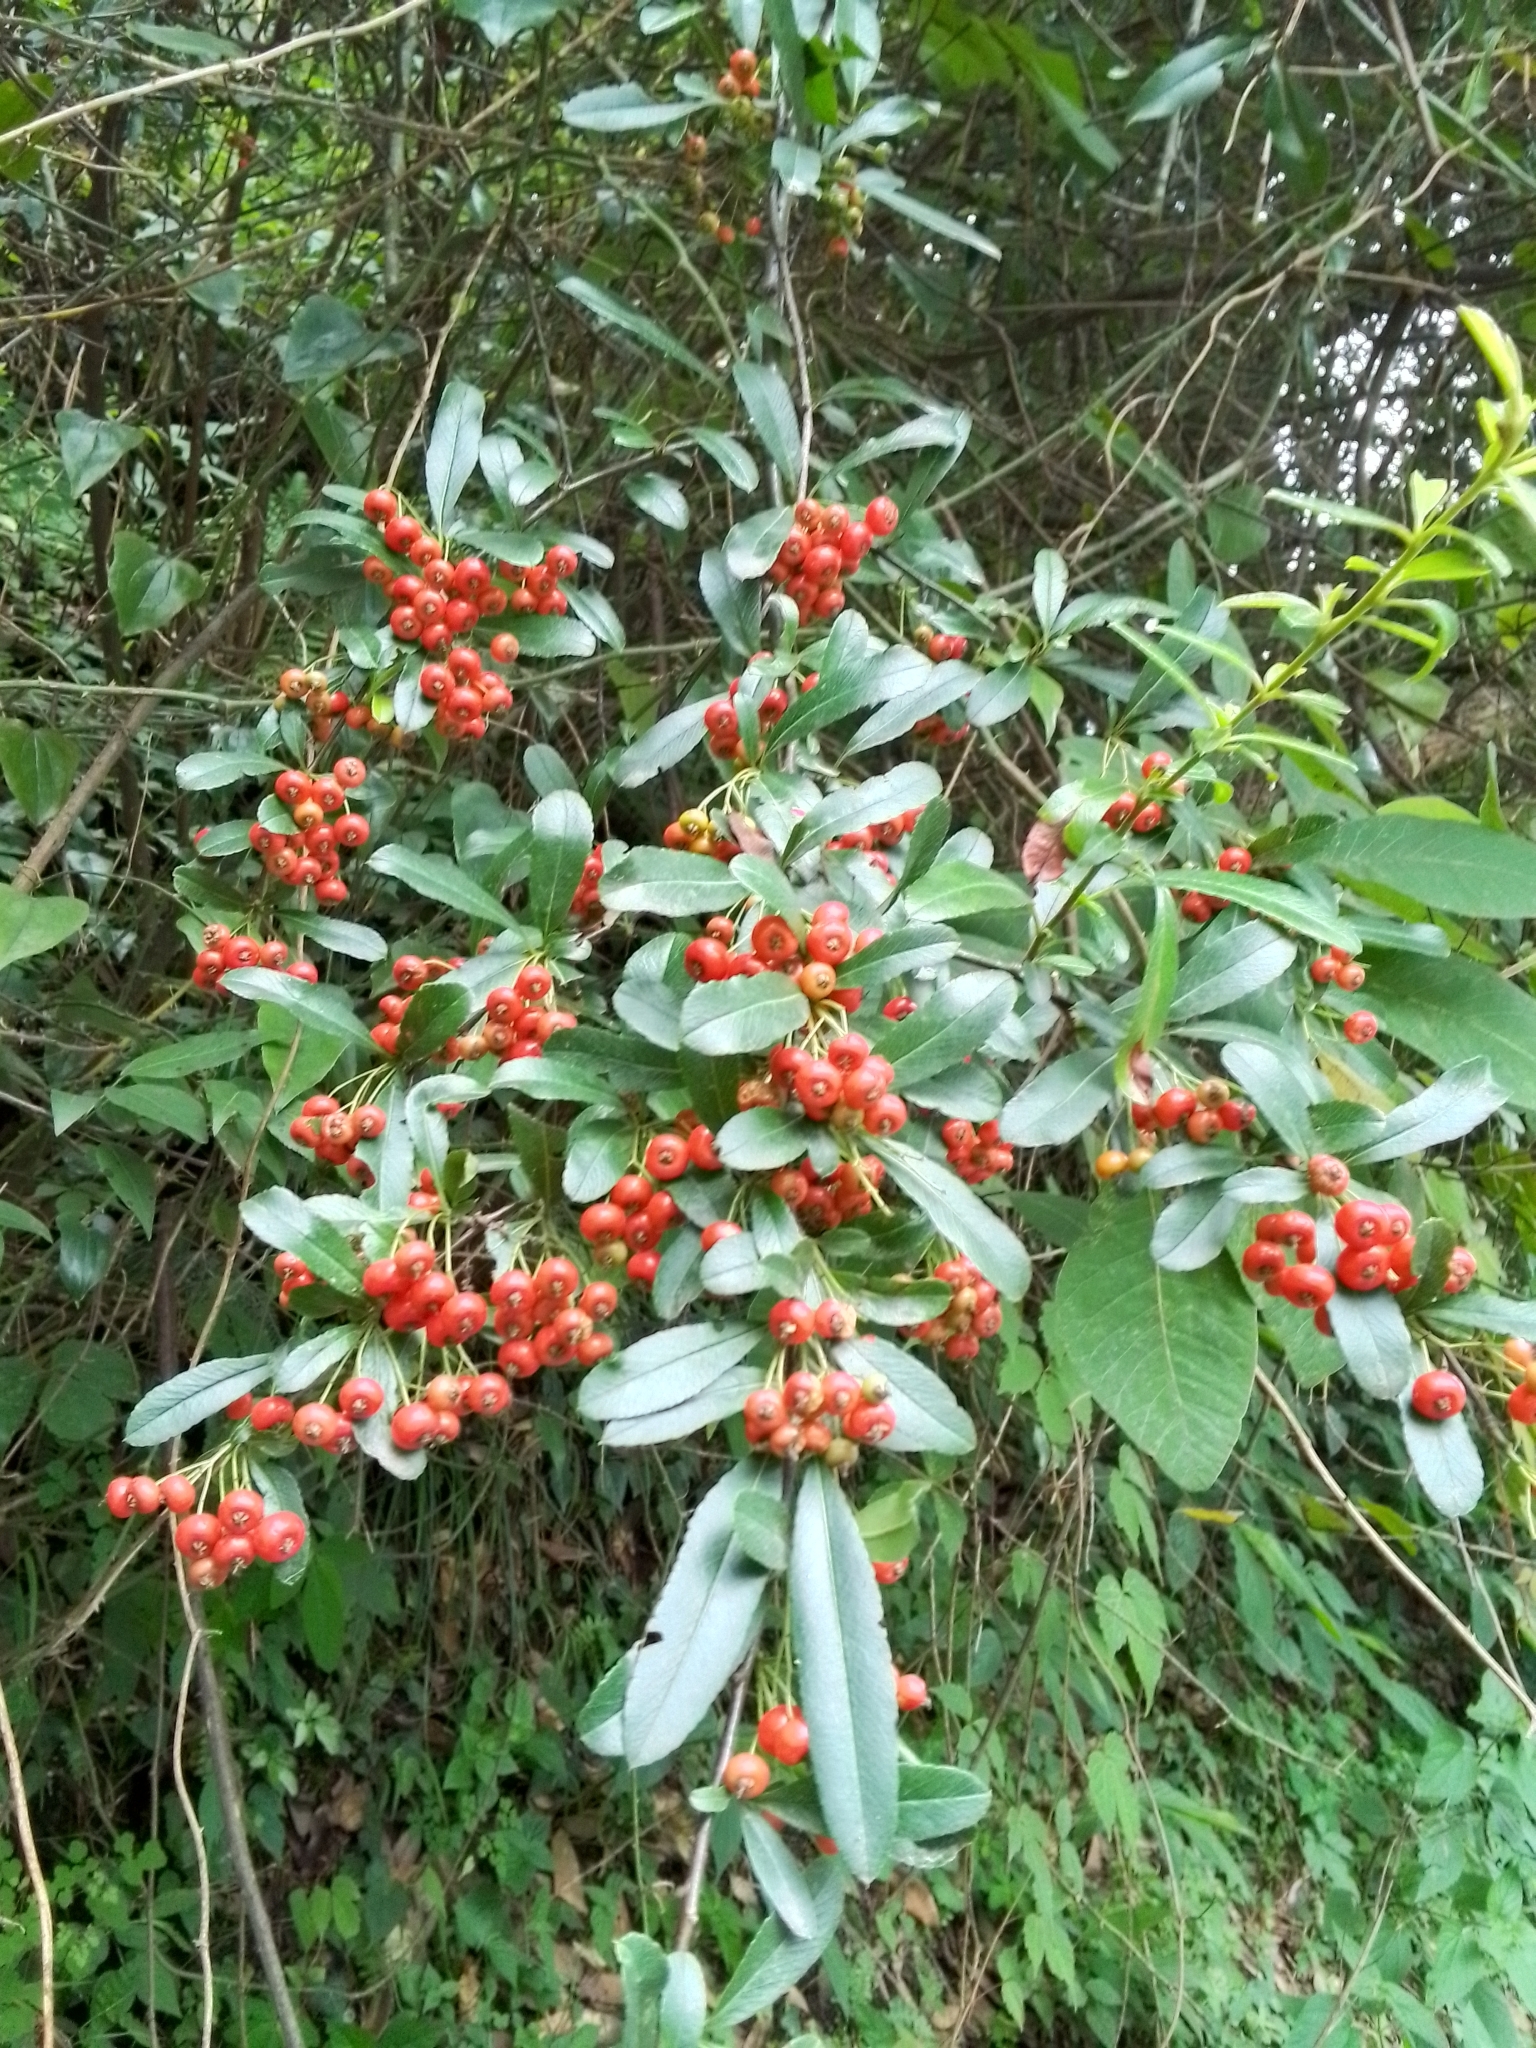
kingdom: Plantae
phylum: Tracheophyta
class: Magnoliopsida
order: Rosales
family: Rosaceae
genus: Pyracantha
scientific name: Pyracantha crenulata
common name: Nepalese firethorn
